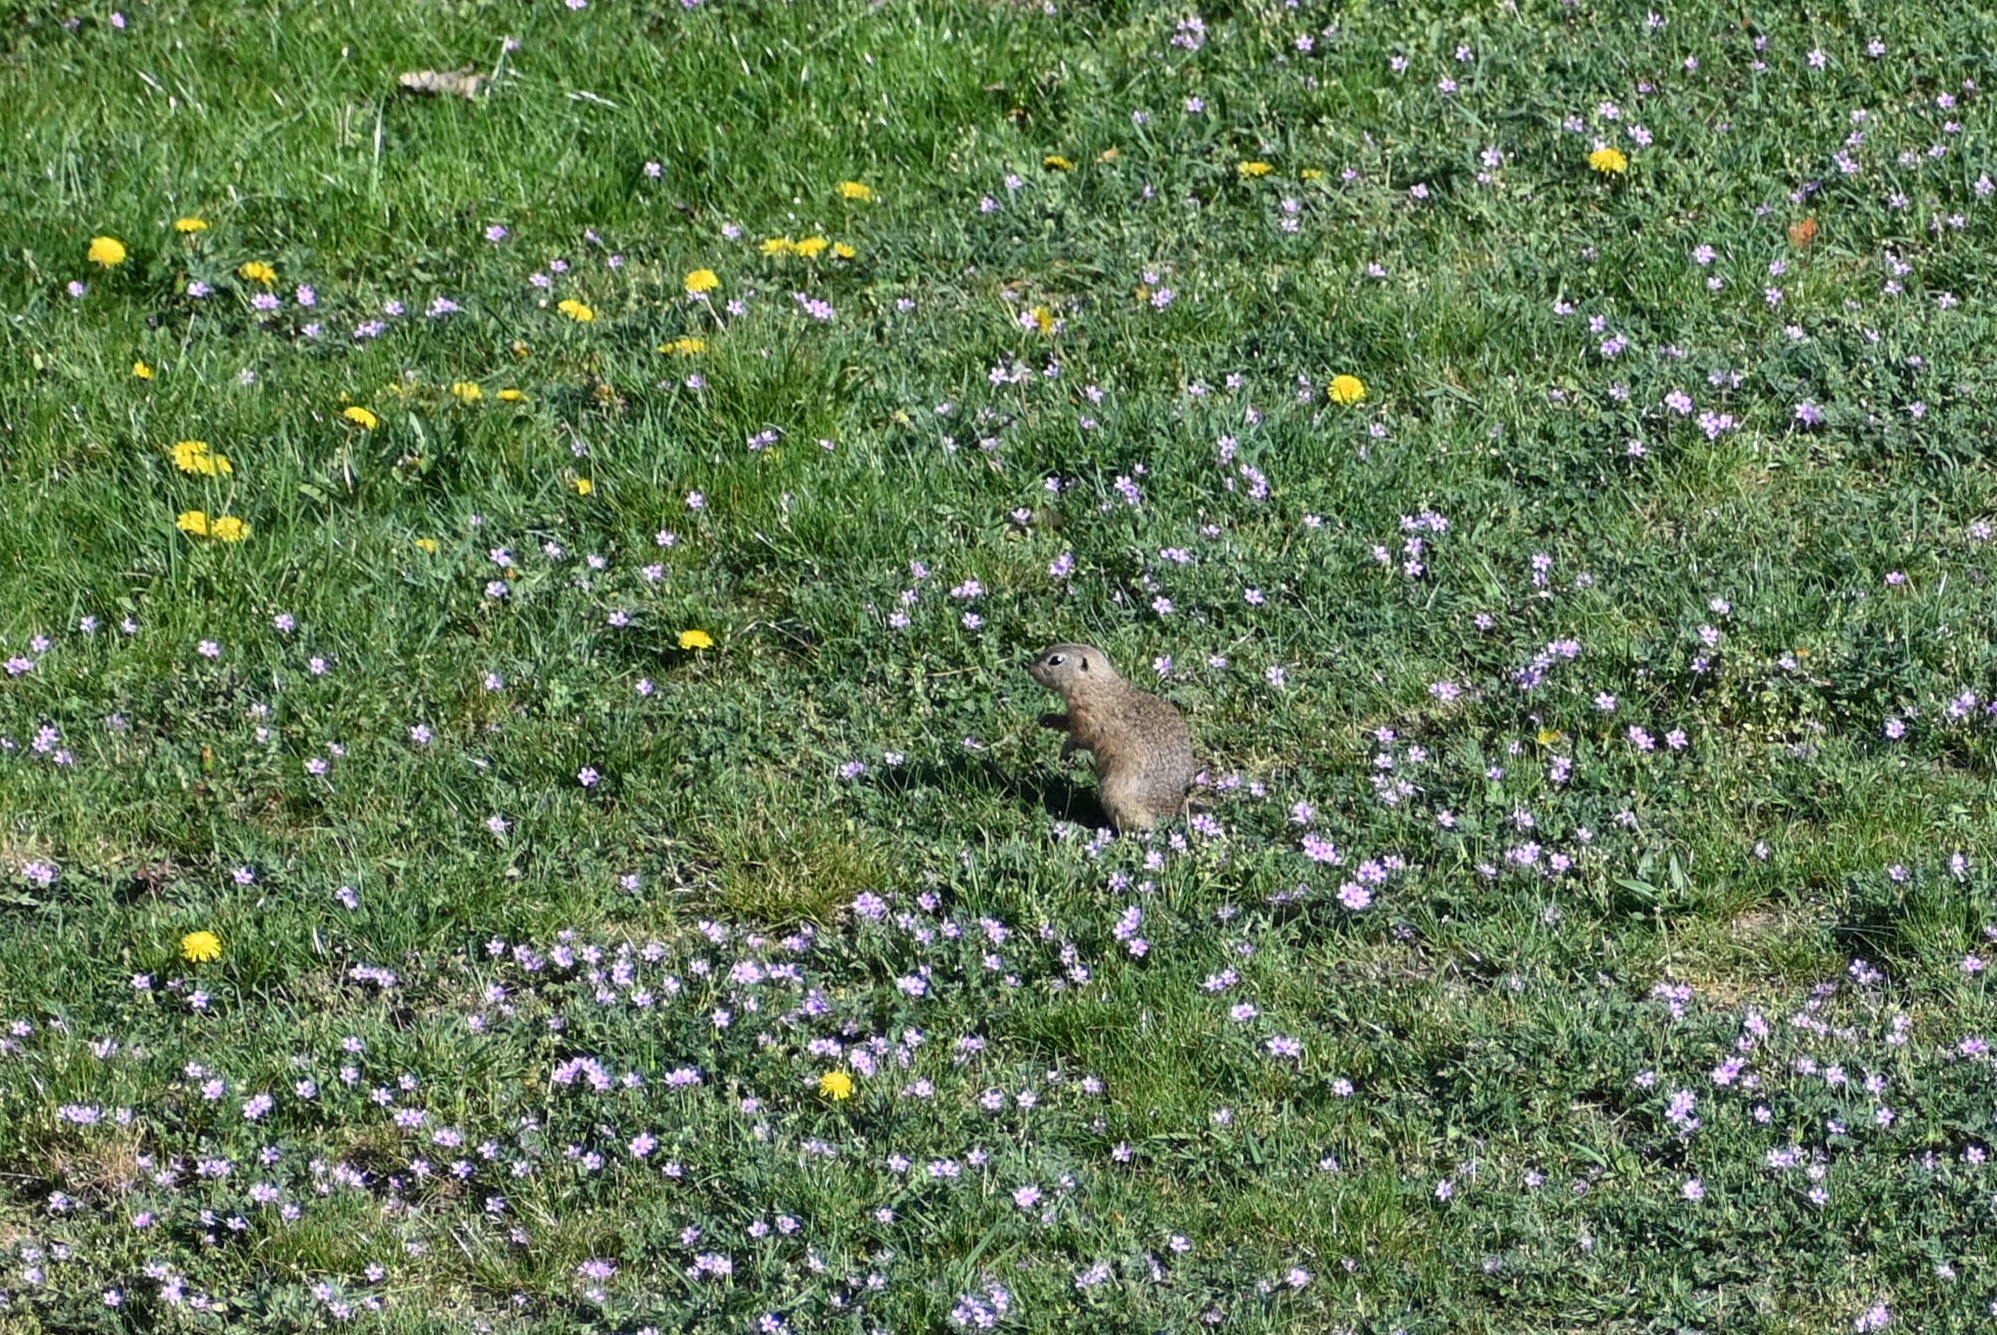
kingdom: Animalia
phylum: Chordata
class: Mammalia
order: Rodentia
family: Sciuridae
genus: Spermophilus
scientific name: Spermophilus citellus
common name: European ground squirrel
